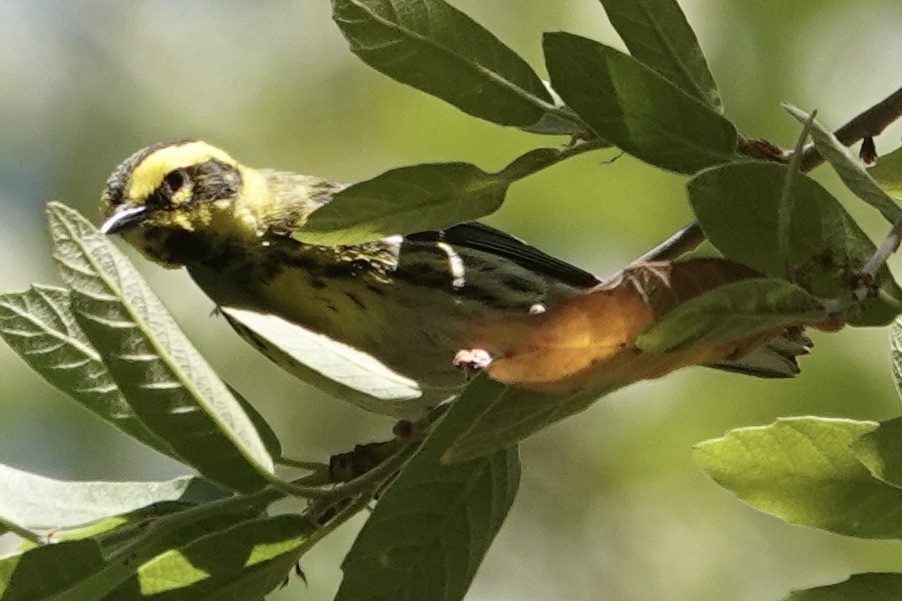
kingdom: Animalia
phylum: Chordata
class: Aves
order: Passeriformes
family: Parulidae
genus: Setophaga
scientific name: Setophaga townsendi
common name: Townsend's warbler
